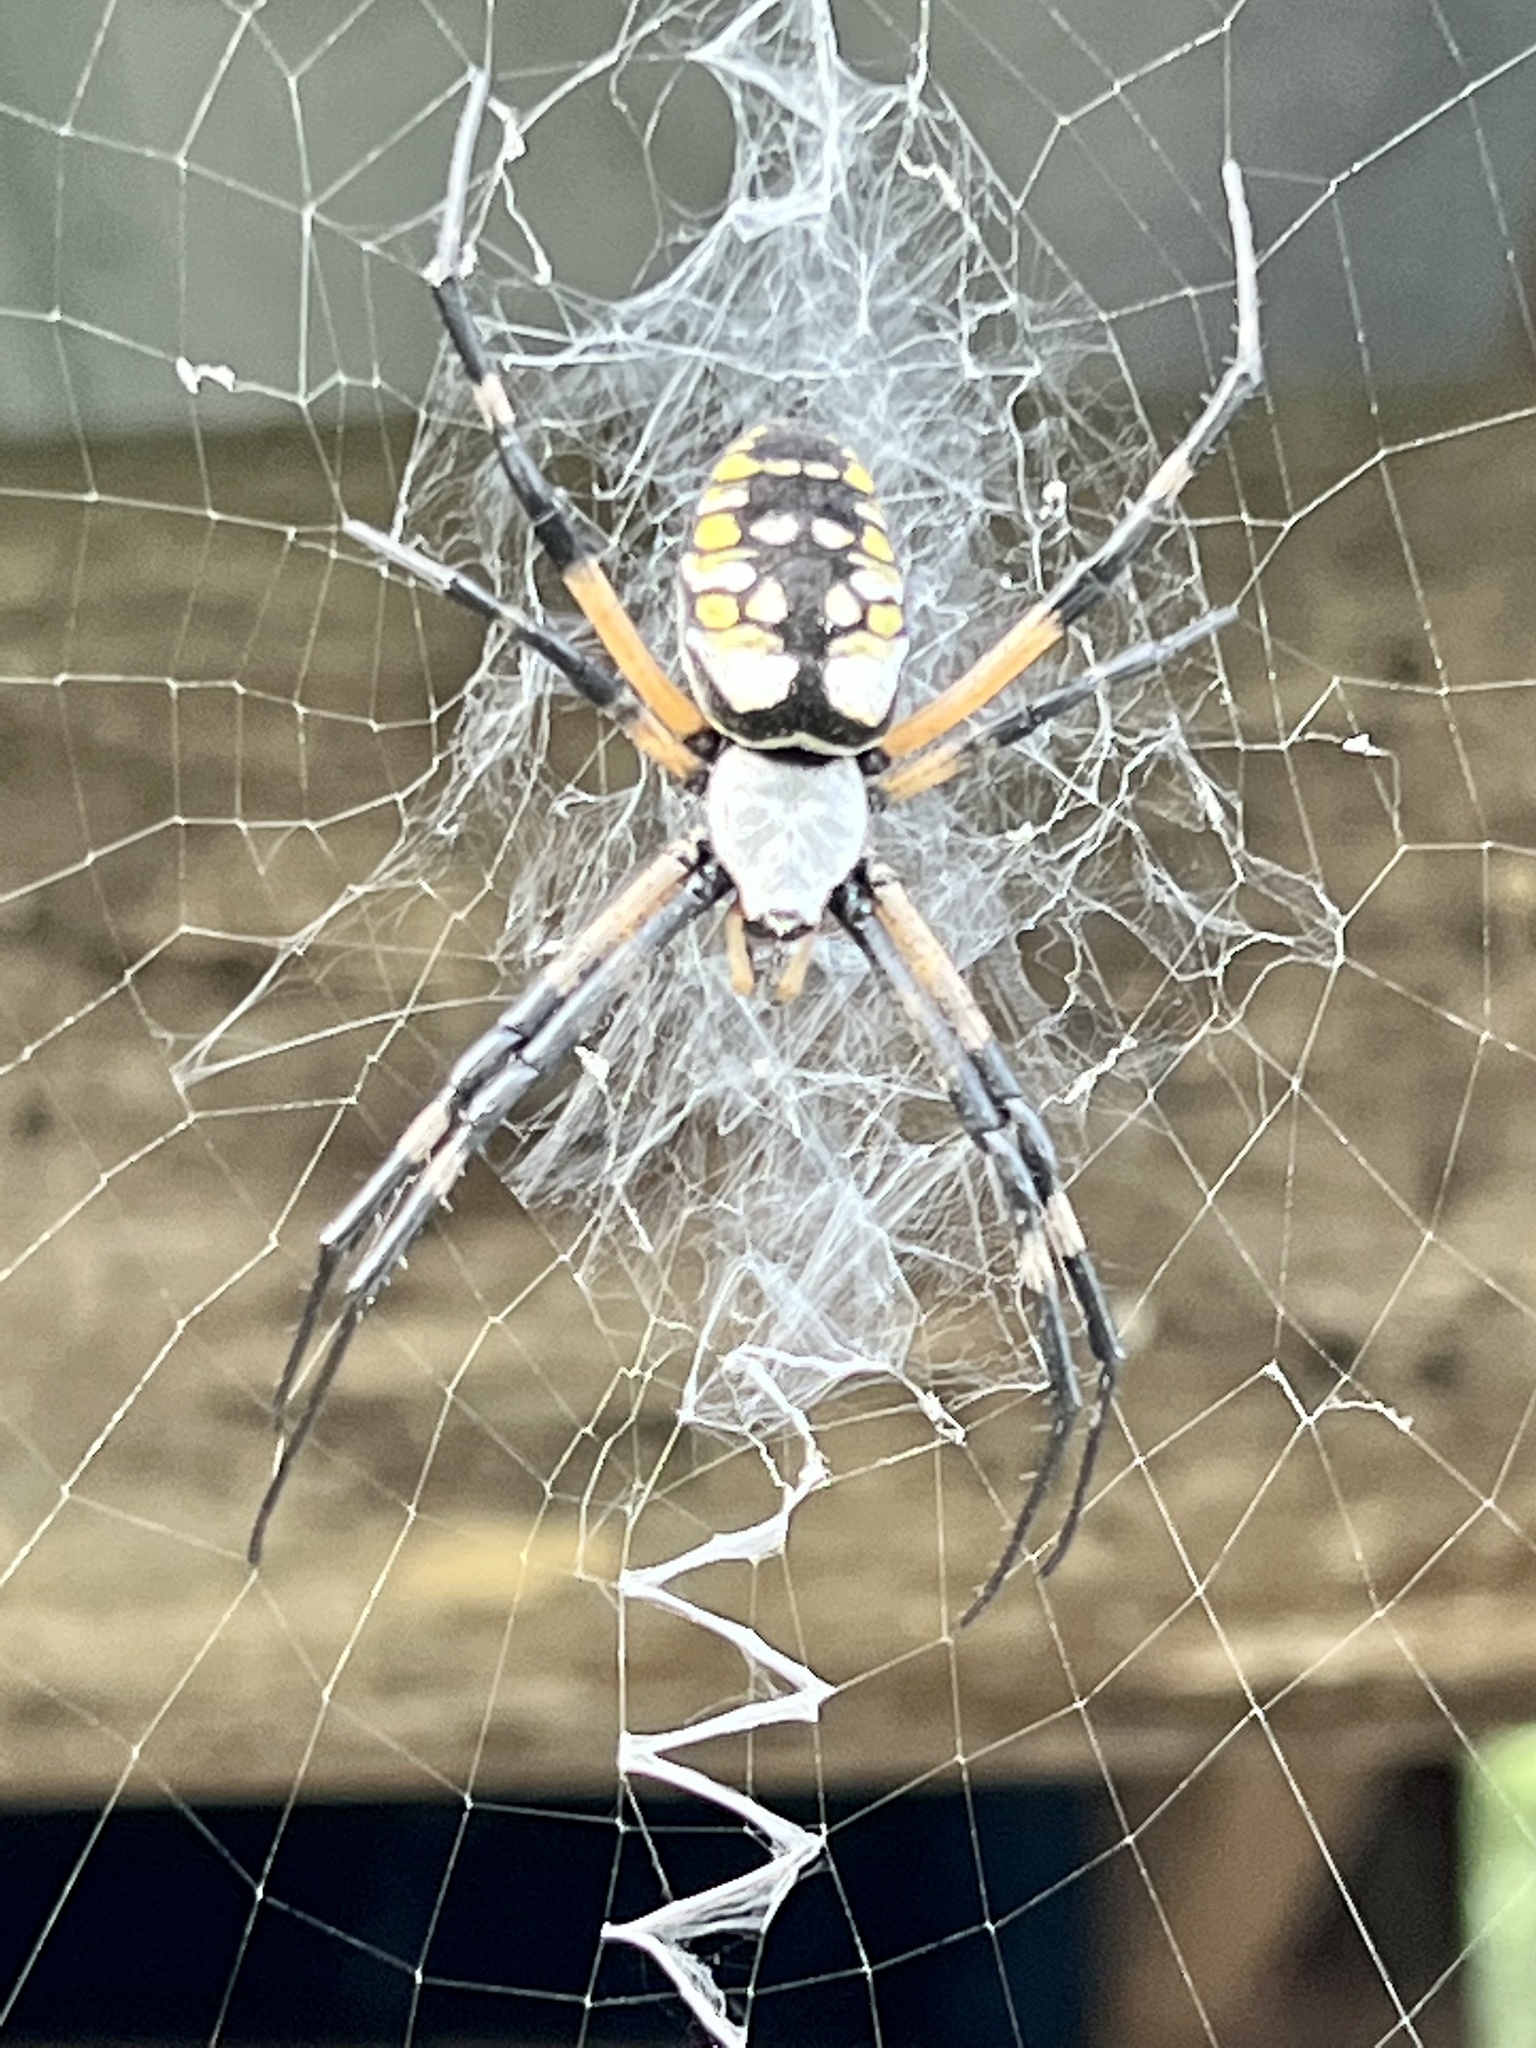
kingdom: Animalia
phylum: Arthropoda
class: Arachnida
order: Araneae
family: Araneidae
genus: Argiope
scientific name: Argiope aurantia
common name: Orb weavers
